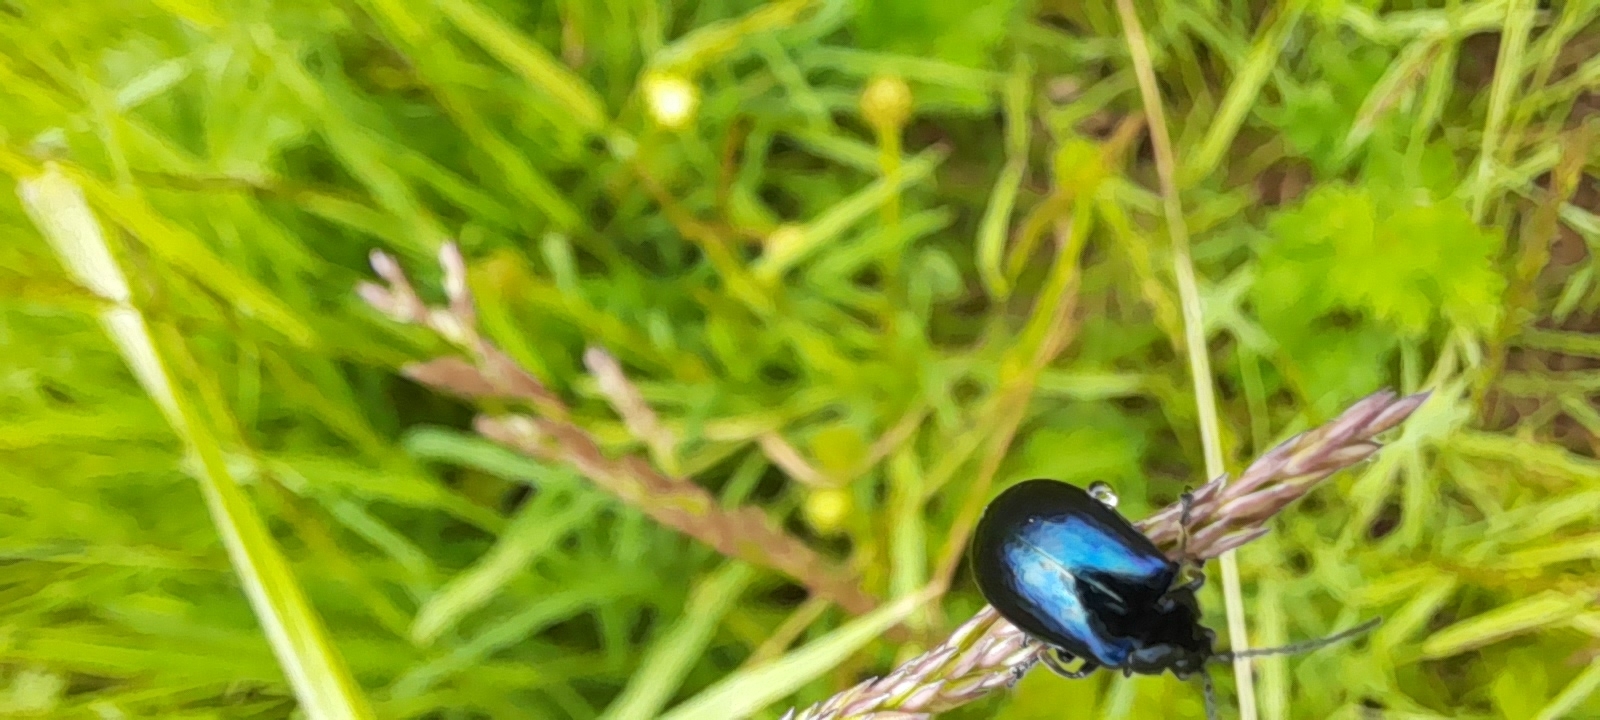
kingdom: Animalia
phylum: Arthropoda
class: Insecta
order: Coleoptera
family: Chrysomelidae
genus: Agelastica
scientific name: Agelastica alni
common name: Alder leaf beetle
